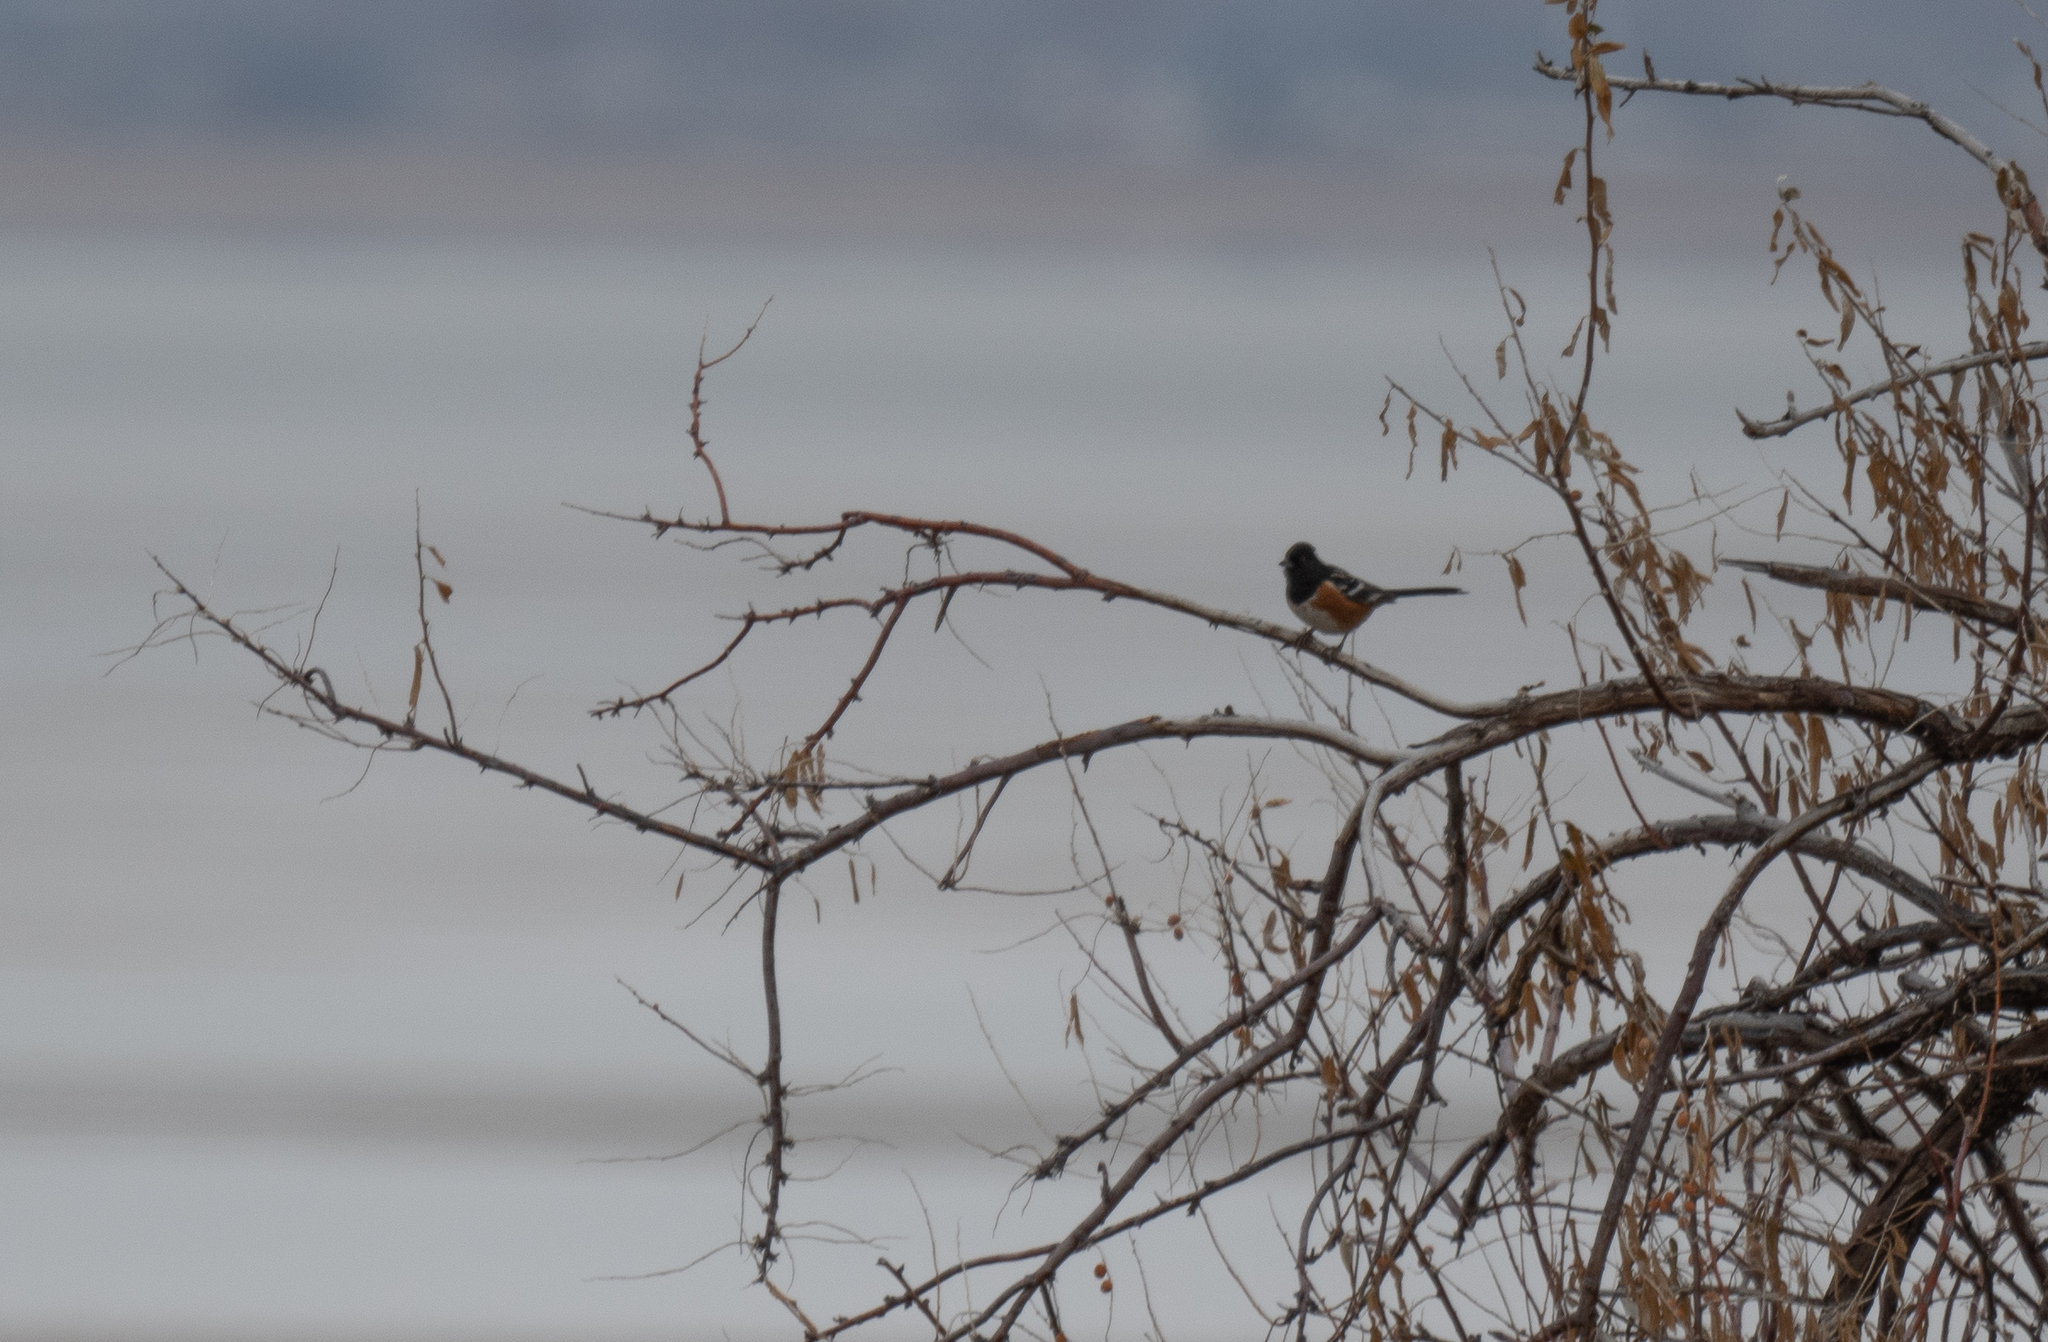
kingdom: Animalia
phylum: Chordata
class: Aves
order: Passeriformes
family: Passerellidae
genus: Pipilo
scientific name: Pipilo maculatus
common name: Spotted towhee
